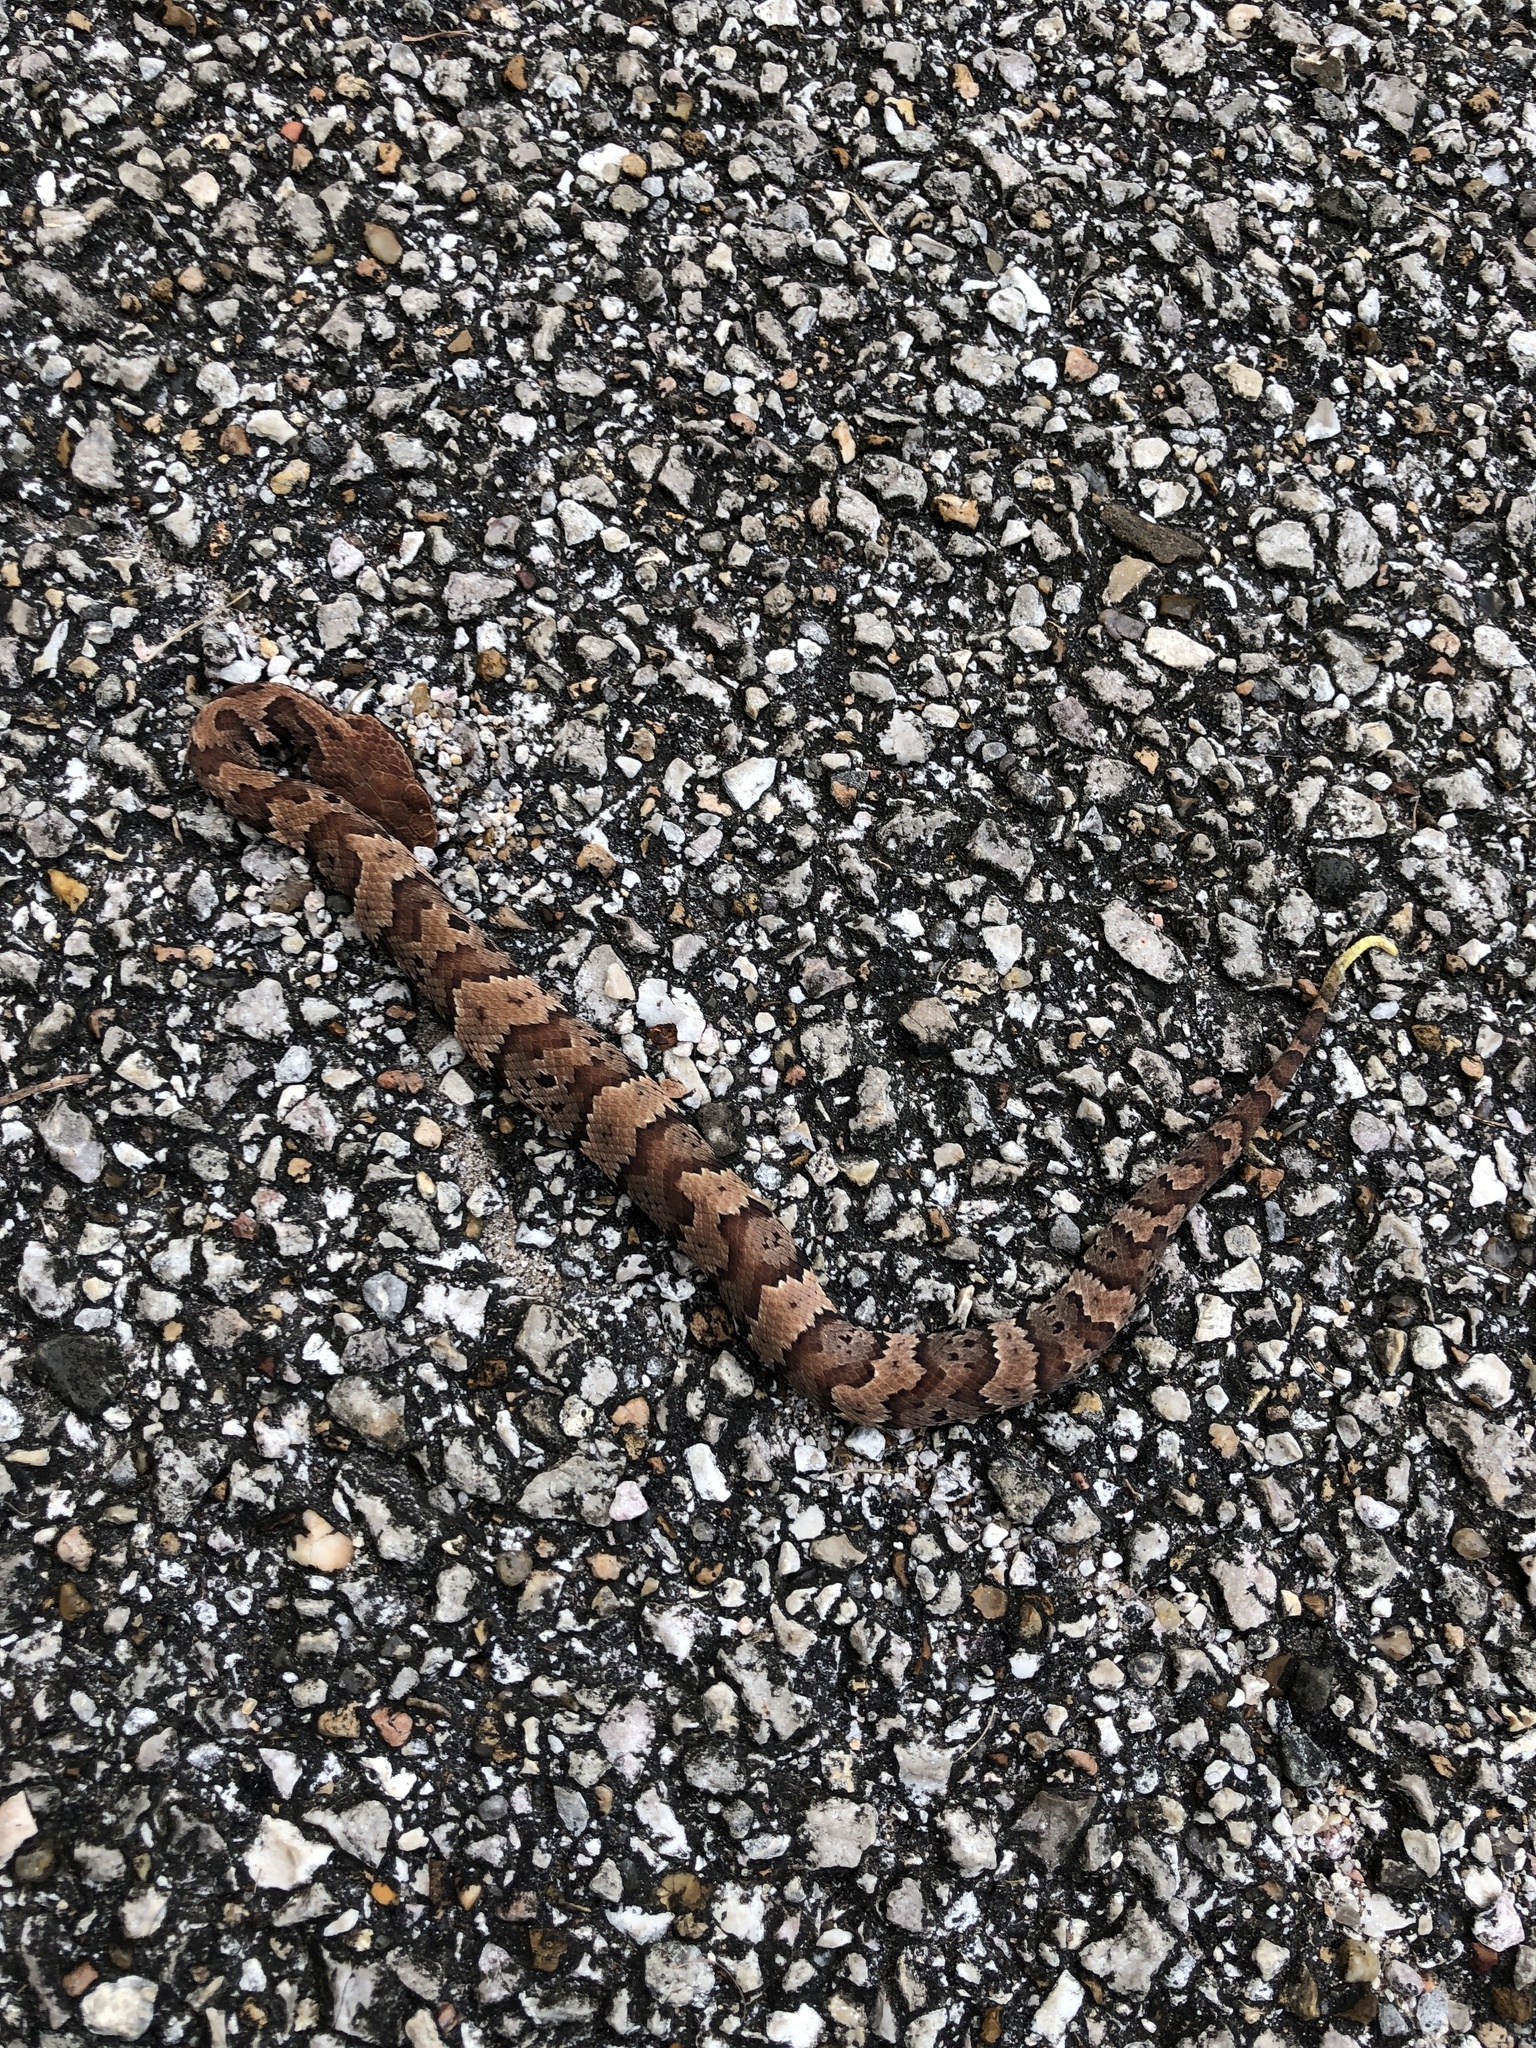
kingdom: Animalia
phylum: Chordata
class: Squamata
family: Viperidae
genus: Agkistrodon
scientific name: Agkistrodon piscivorus
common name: Cottonmouth
